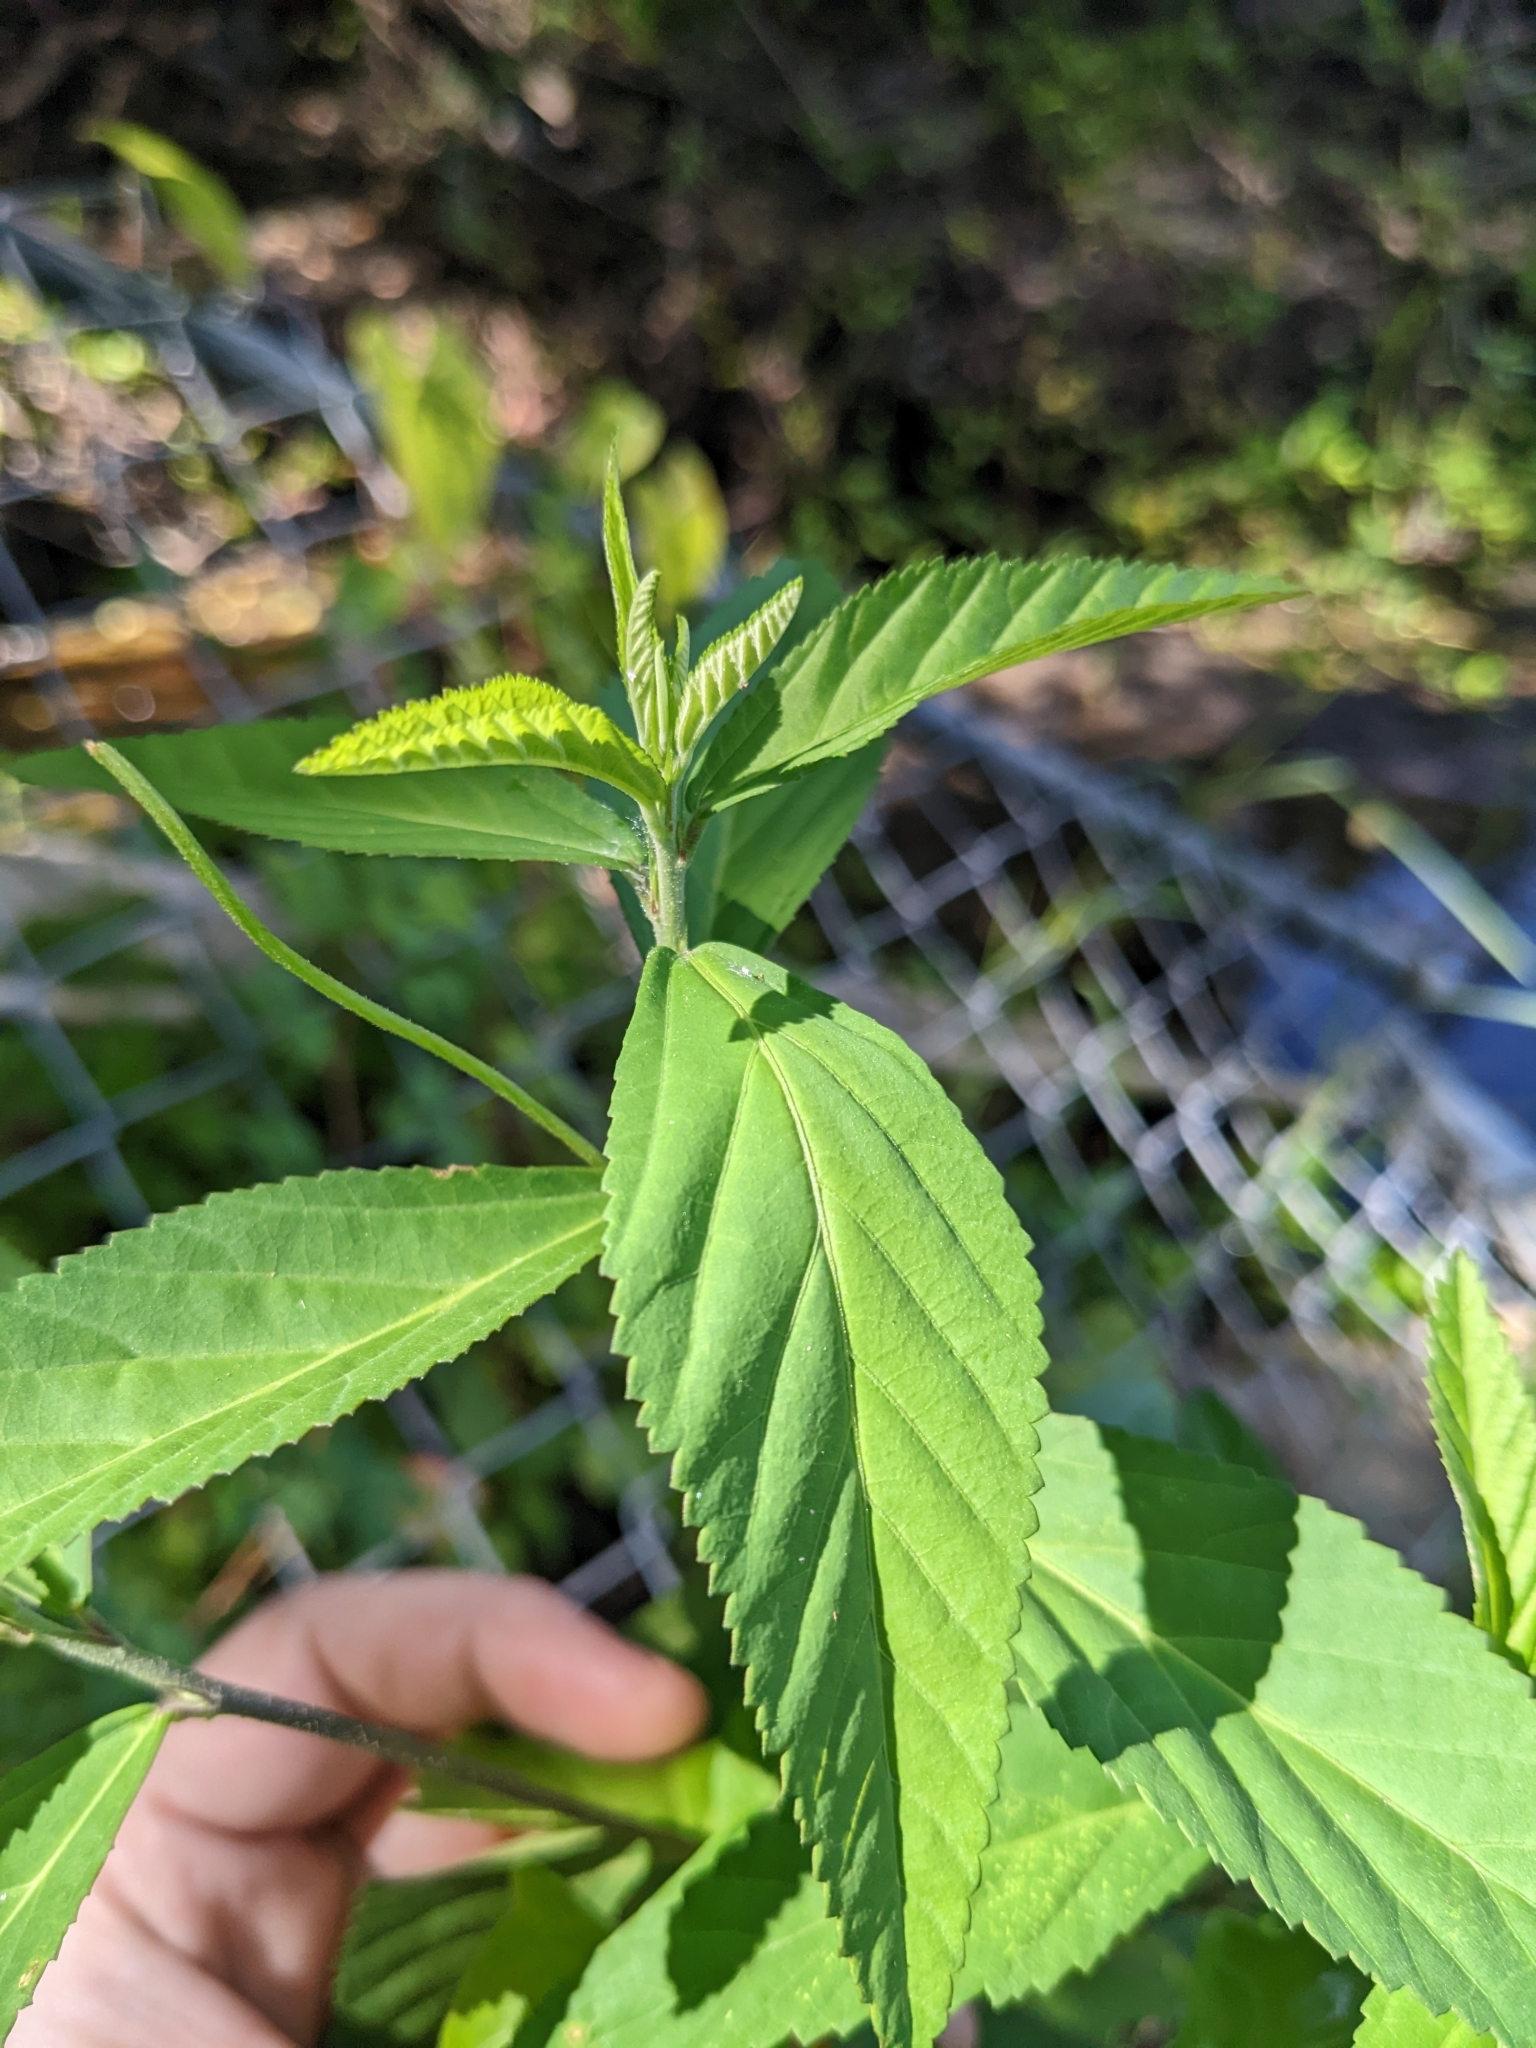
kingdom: Plantae
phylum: Tracheophyta
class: Magnoliopsida
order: Malvales
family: Malvaceae
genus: Sida
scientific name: Sida rhombifolia
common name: Queensland-hemp
